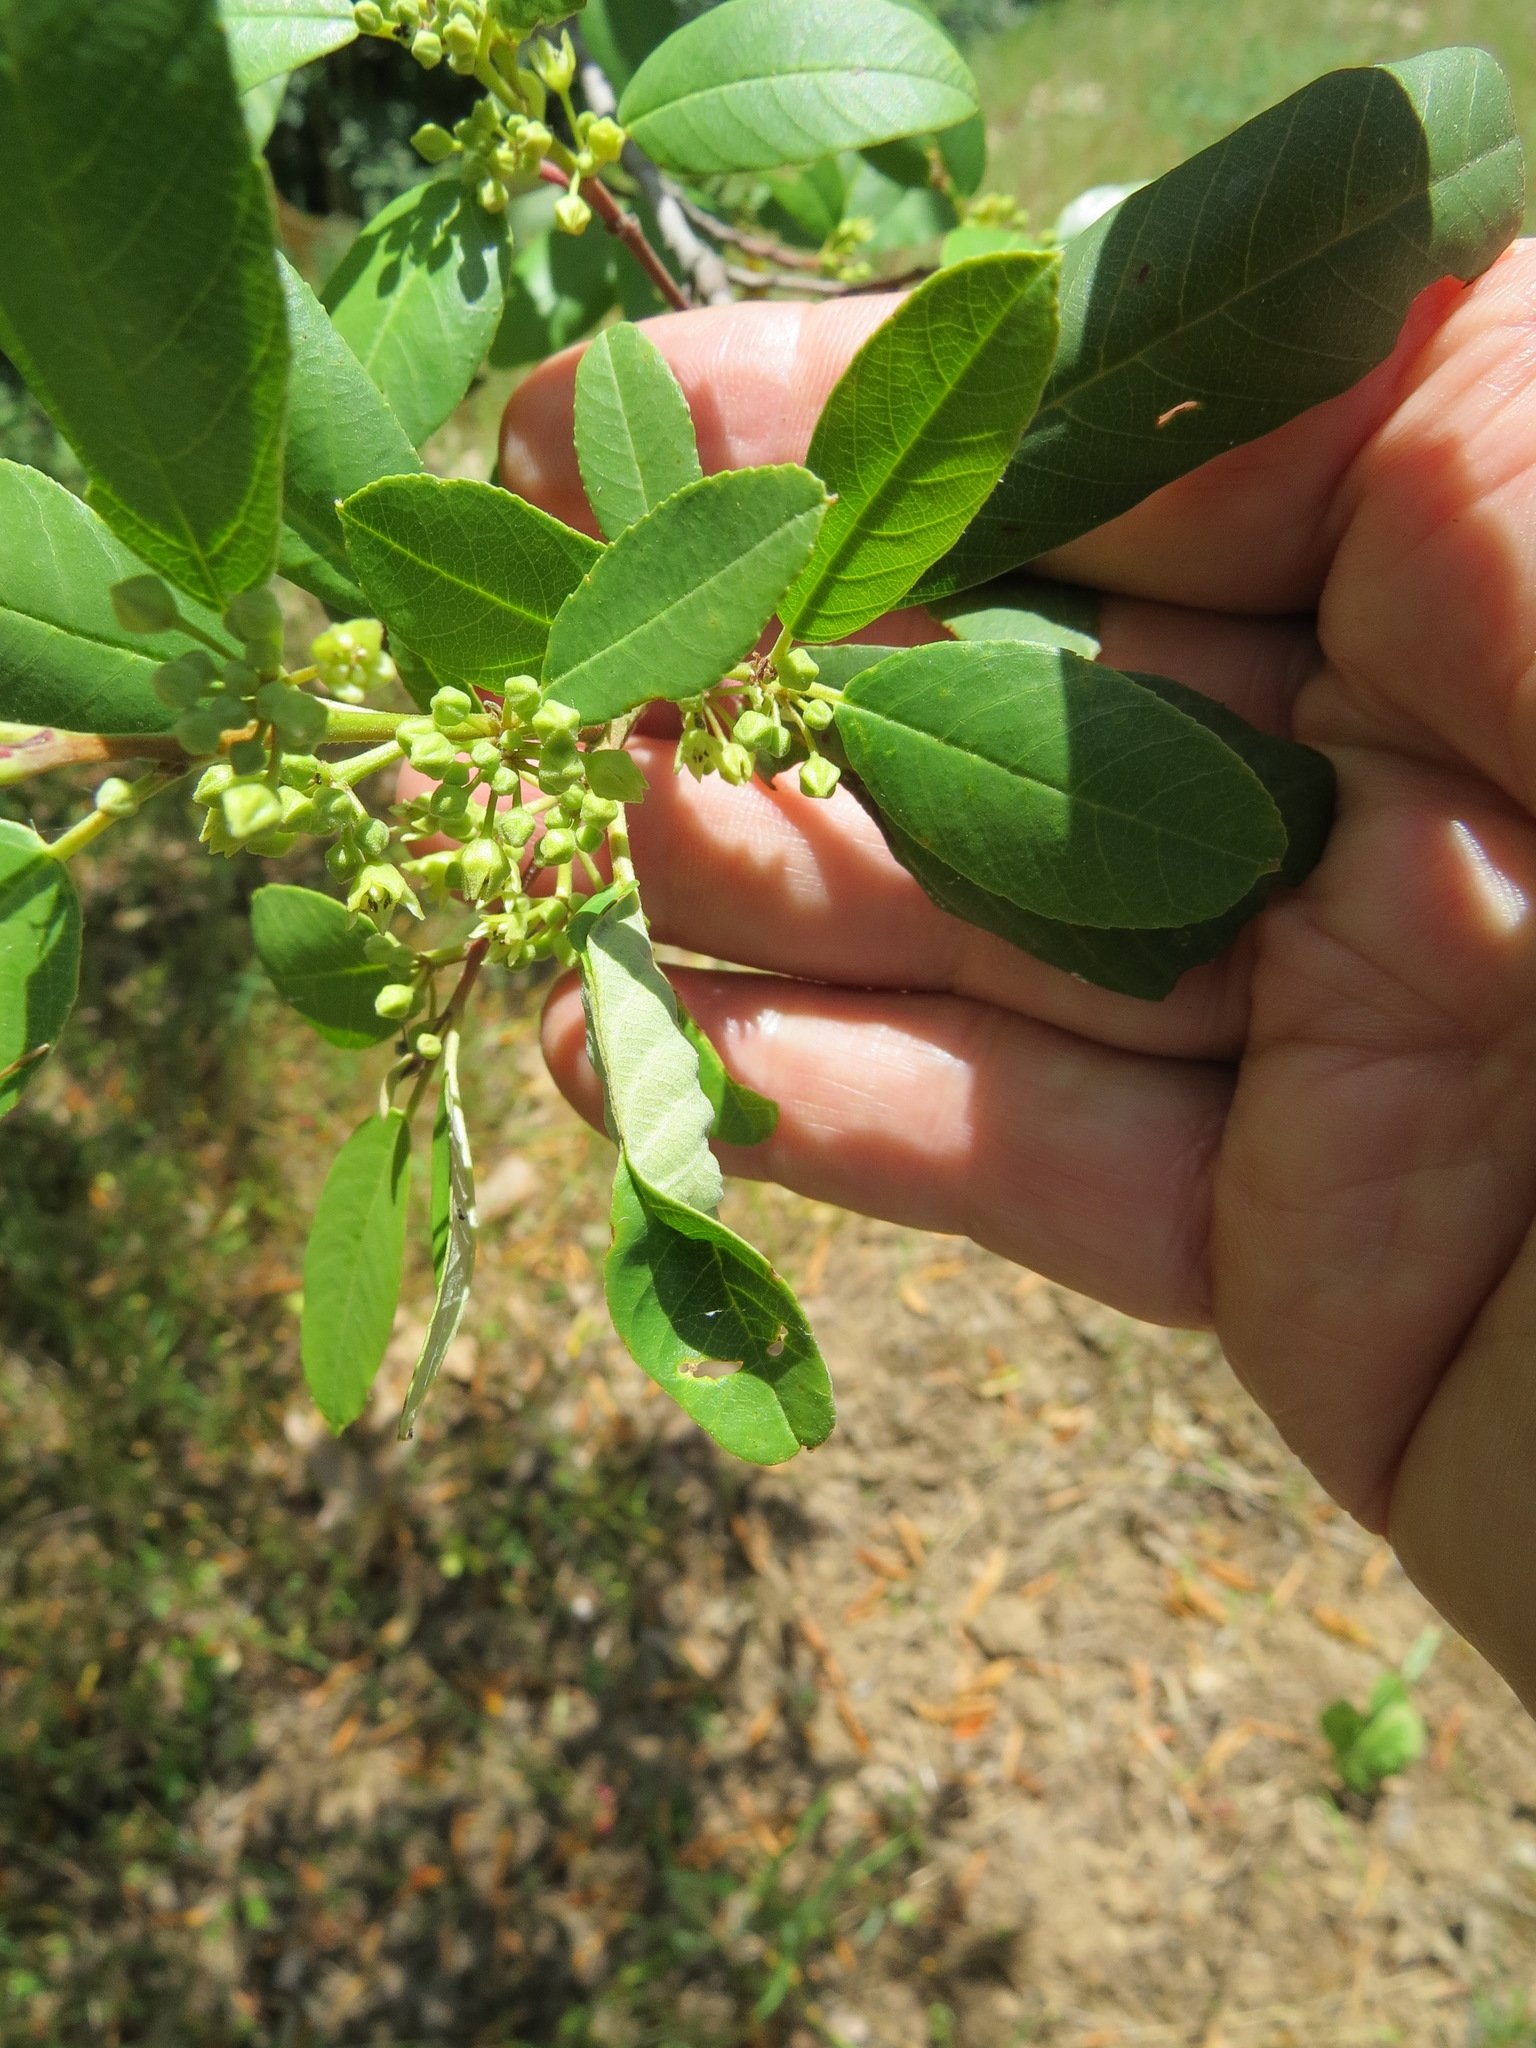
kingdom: Animalia
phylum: Arthropoda
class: Insecta
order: Lepidoptera
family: Cosmopterigidae
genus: Sorhagenia
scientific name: Sorhagenia nimbosus
